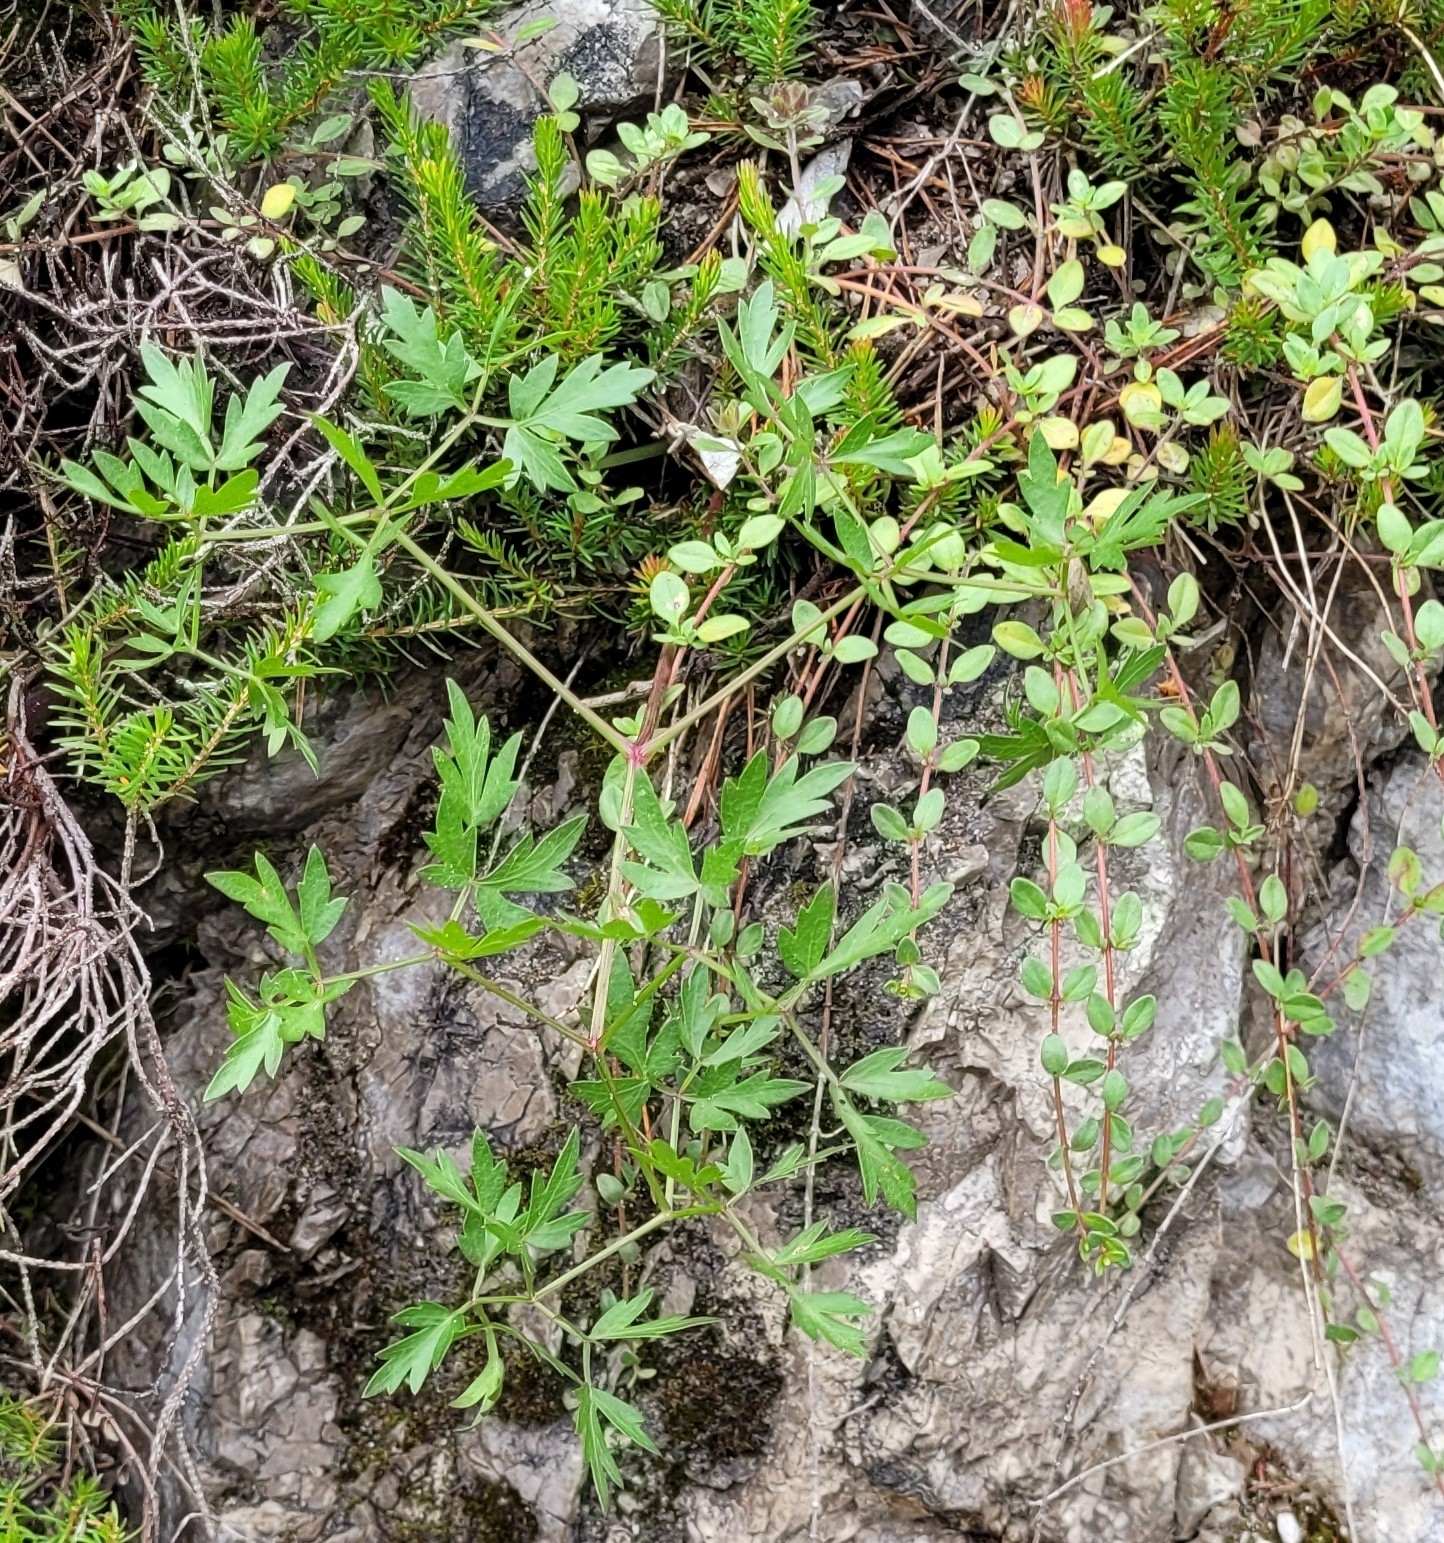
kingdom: Plantae
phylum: Tracheophyta
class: Magnoliopsida
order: Apiales
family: Apiaceae
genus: Oreoselinum
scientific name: Oreoselinum nigrum
